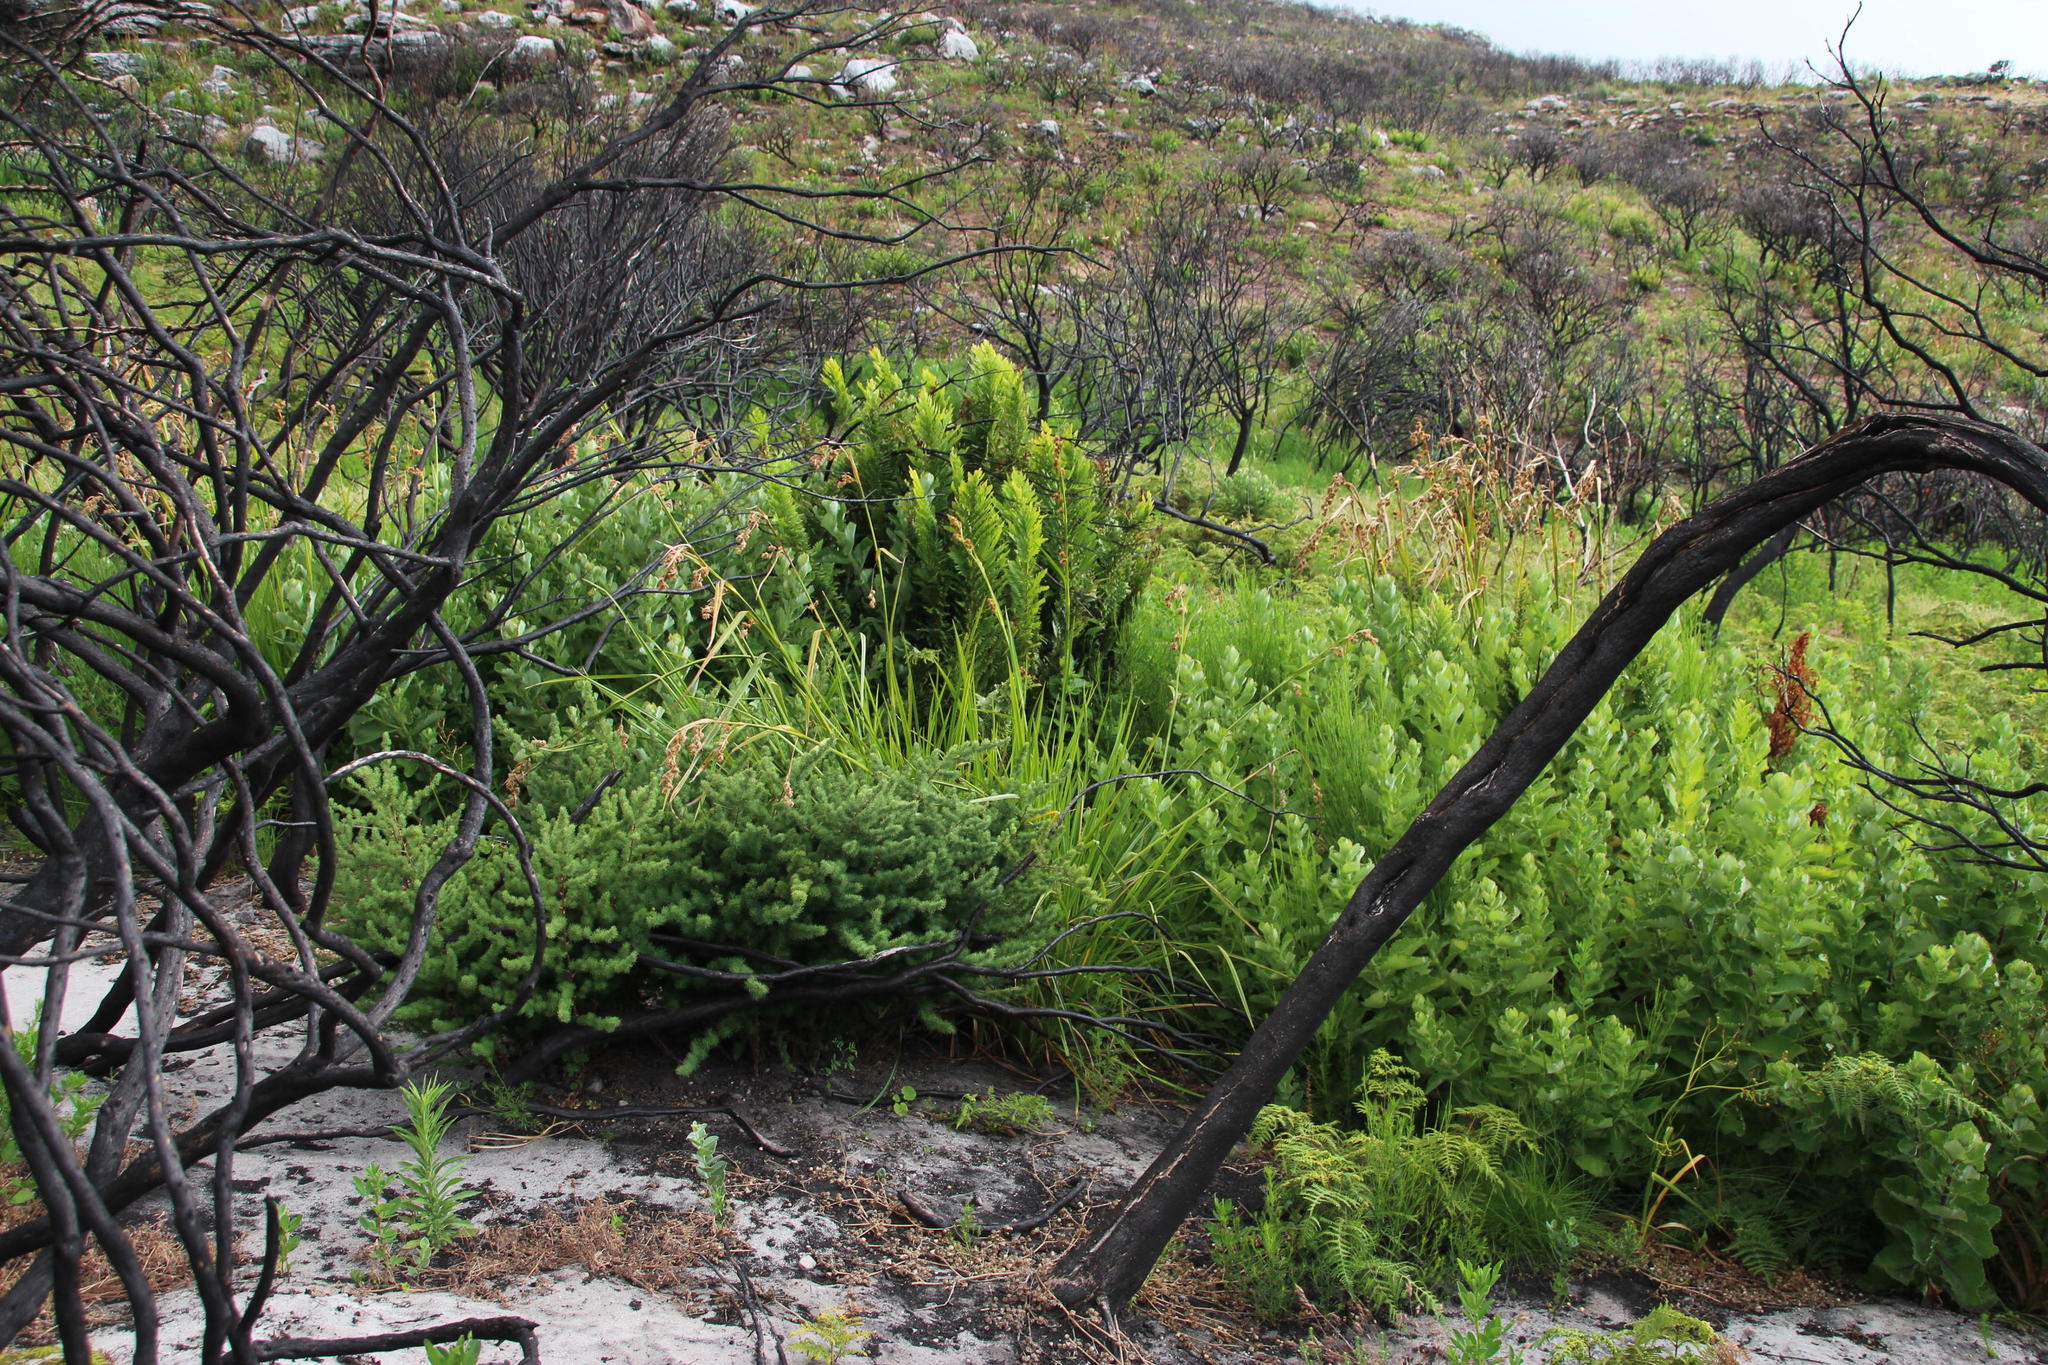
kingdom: Plantae
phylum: Tracheophyta
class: Liliopsida
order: Poales
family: Cyperaceae
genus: Carpha
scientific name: Carpha glomerata
